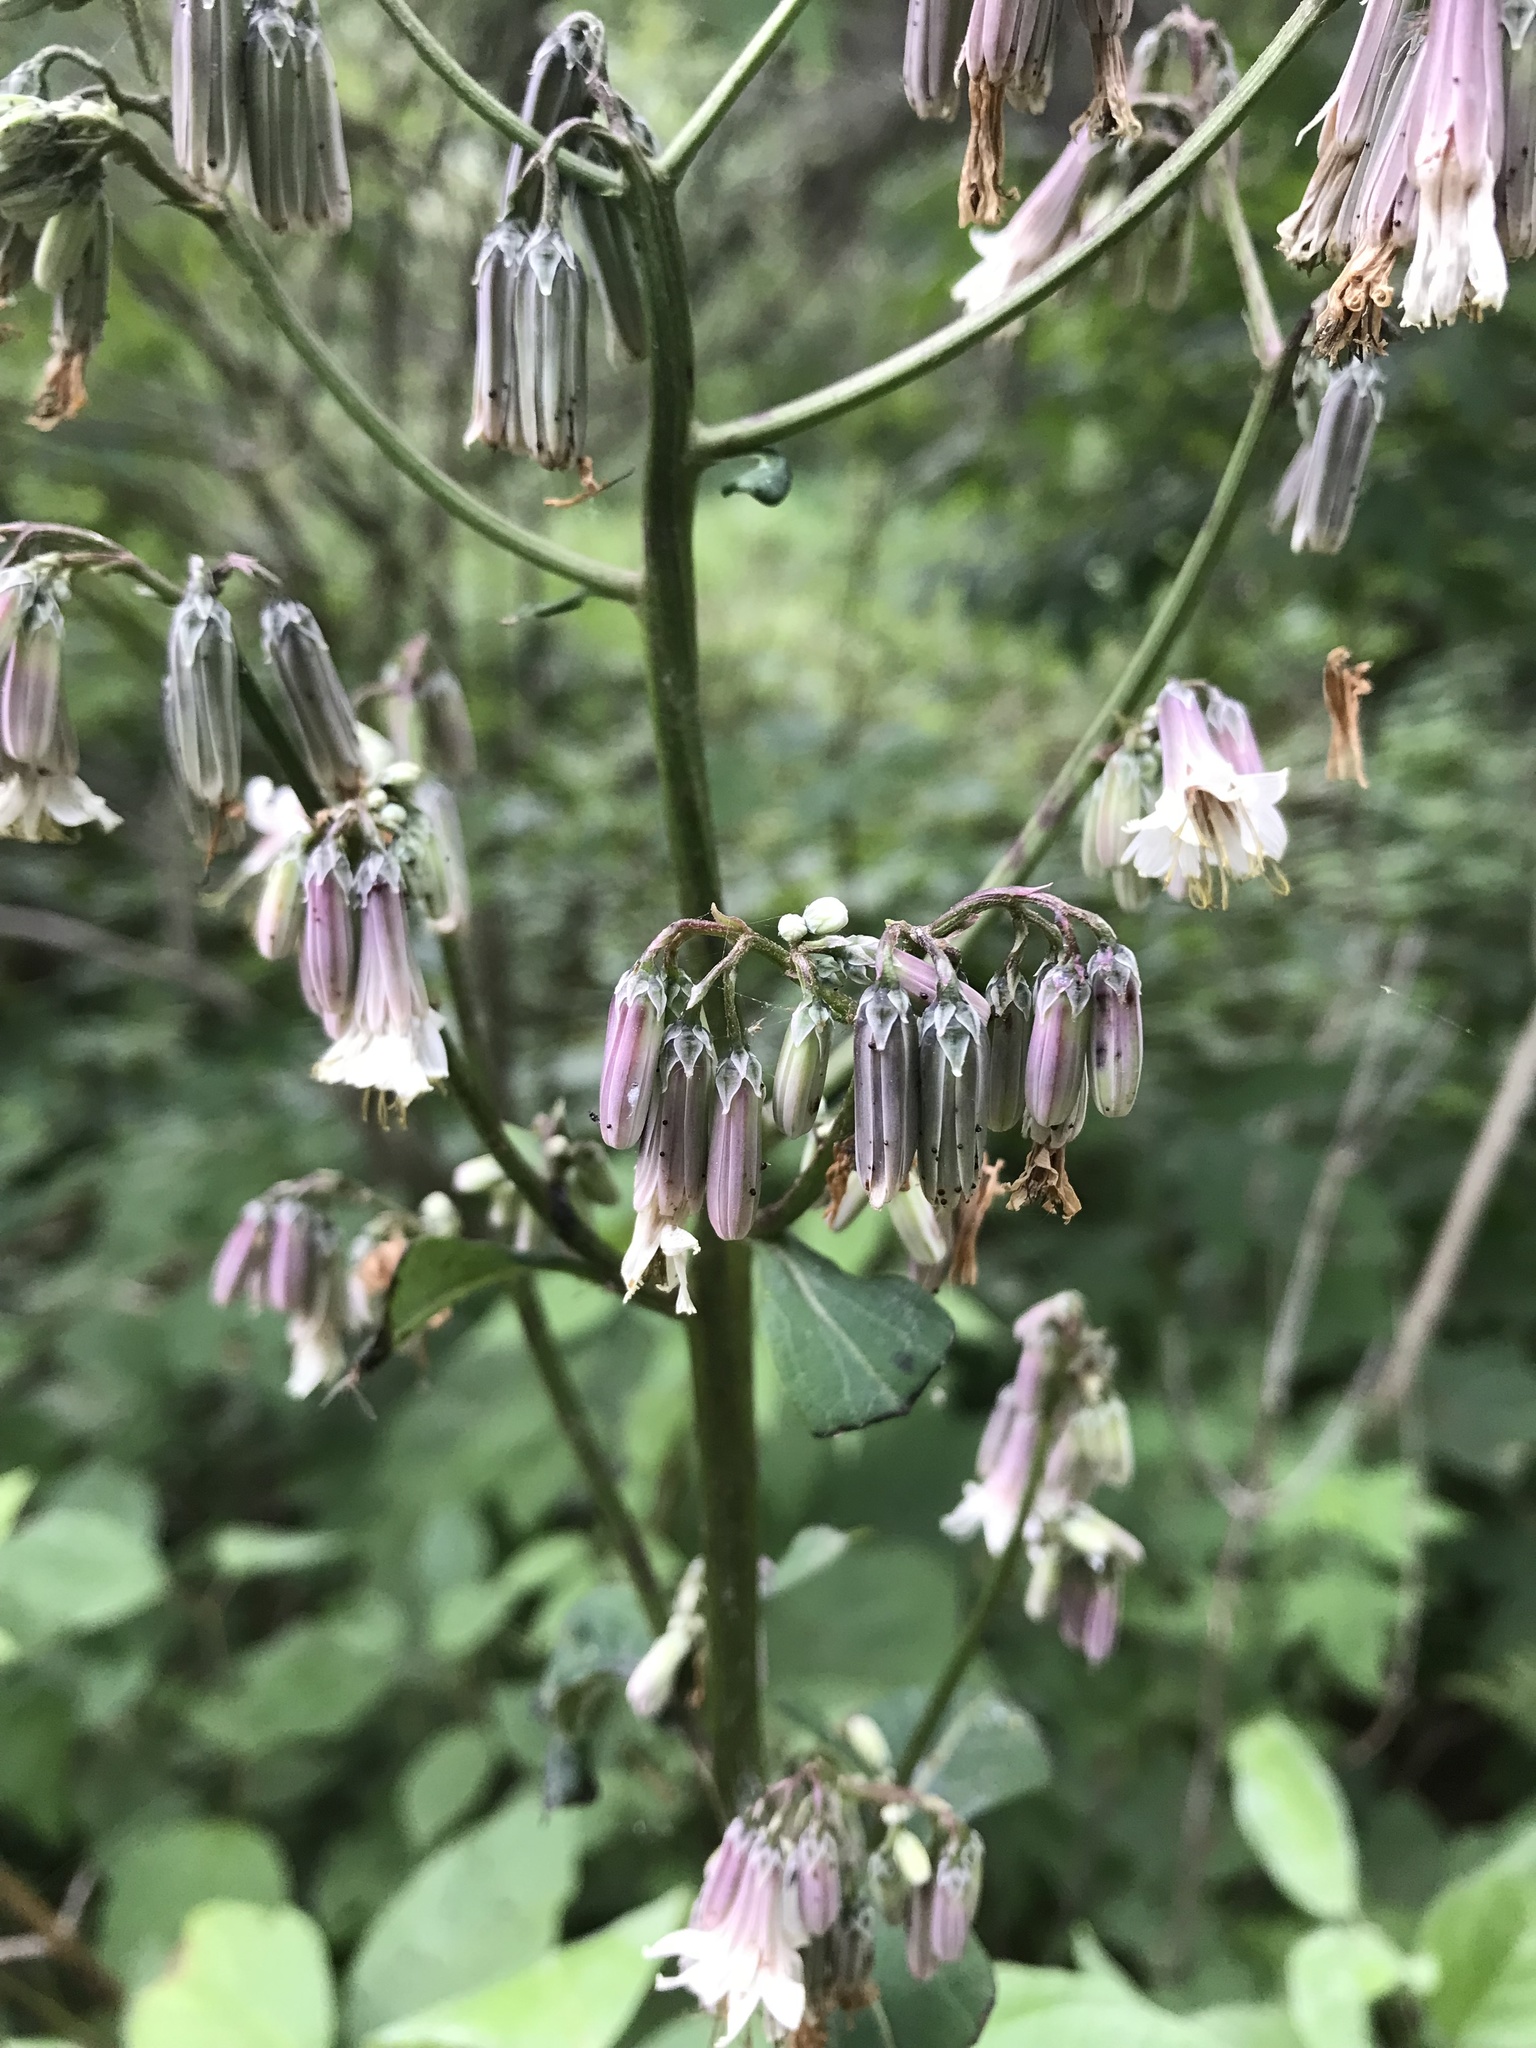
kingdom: Plantae
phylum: Tracheophyta
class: Magnoliopsida
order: Asterales
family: Asteraceae
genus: Nabalus
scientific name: Nabalus albus
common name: White rattlesnakeroot
